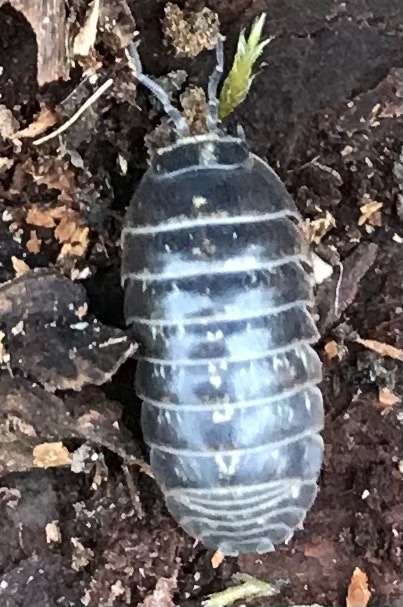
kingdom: Animalia
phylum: Arthropoda
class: Malacostraca
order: Isopoda
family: Armadillidiidae
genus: Armadillidium
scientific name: Armadillidium vulgare
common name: Common pill woodlouse
